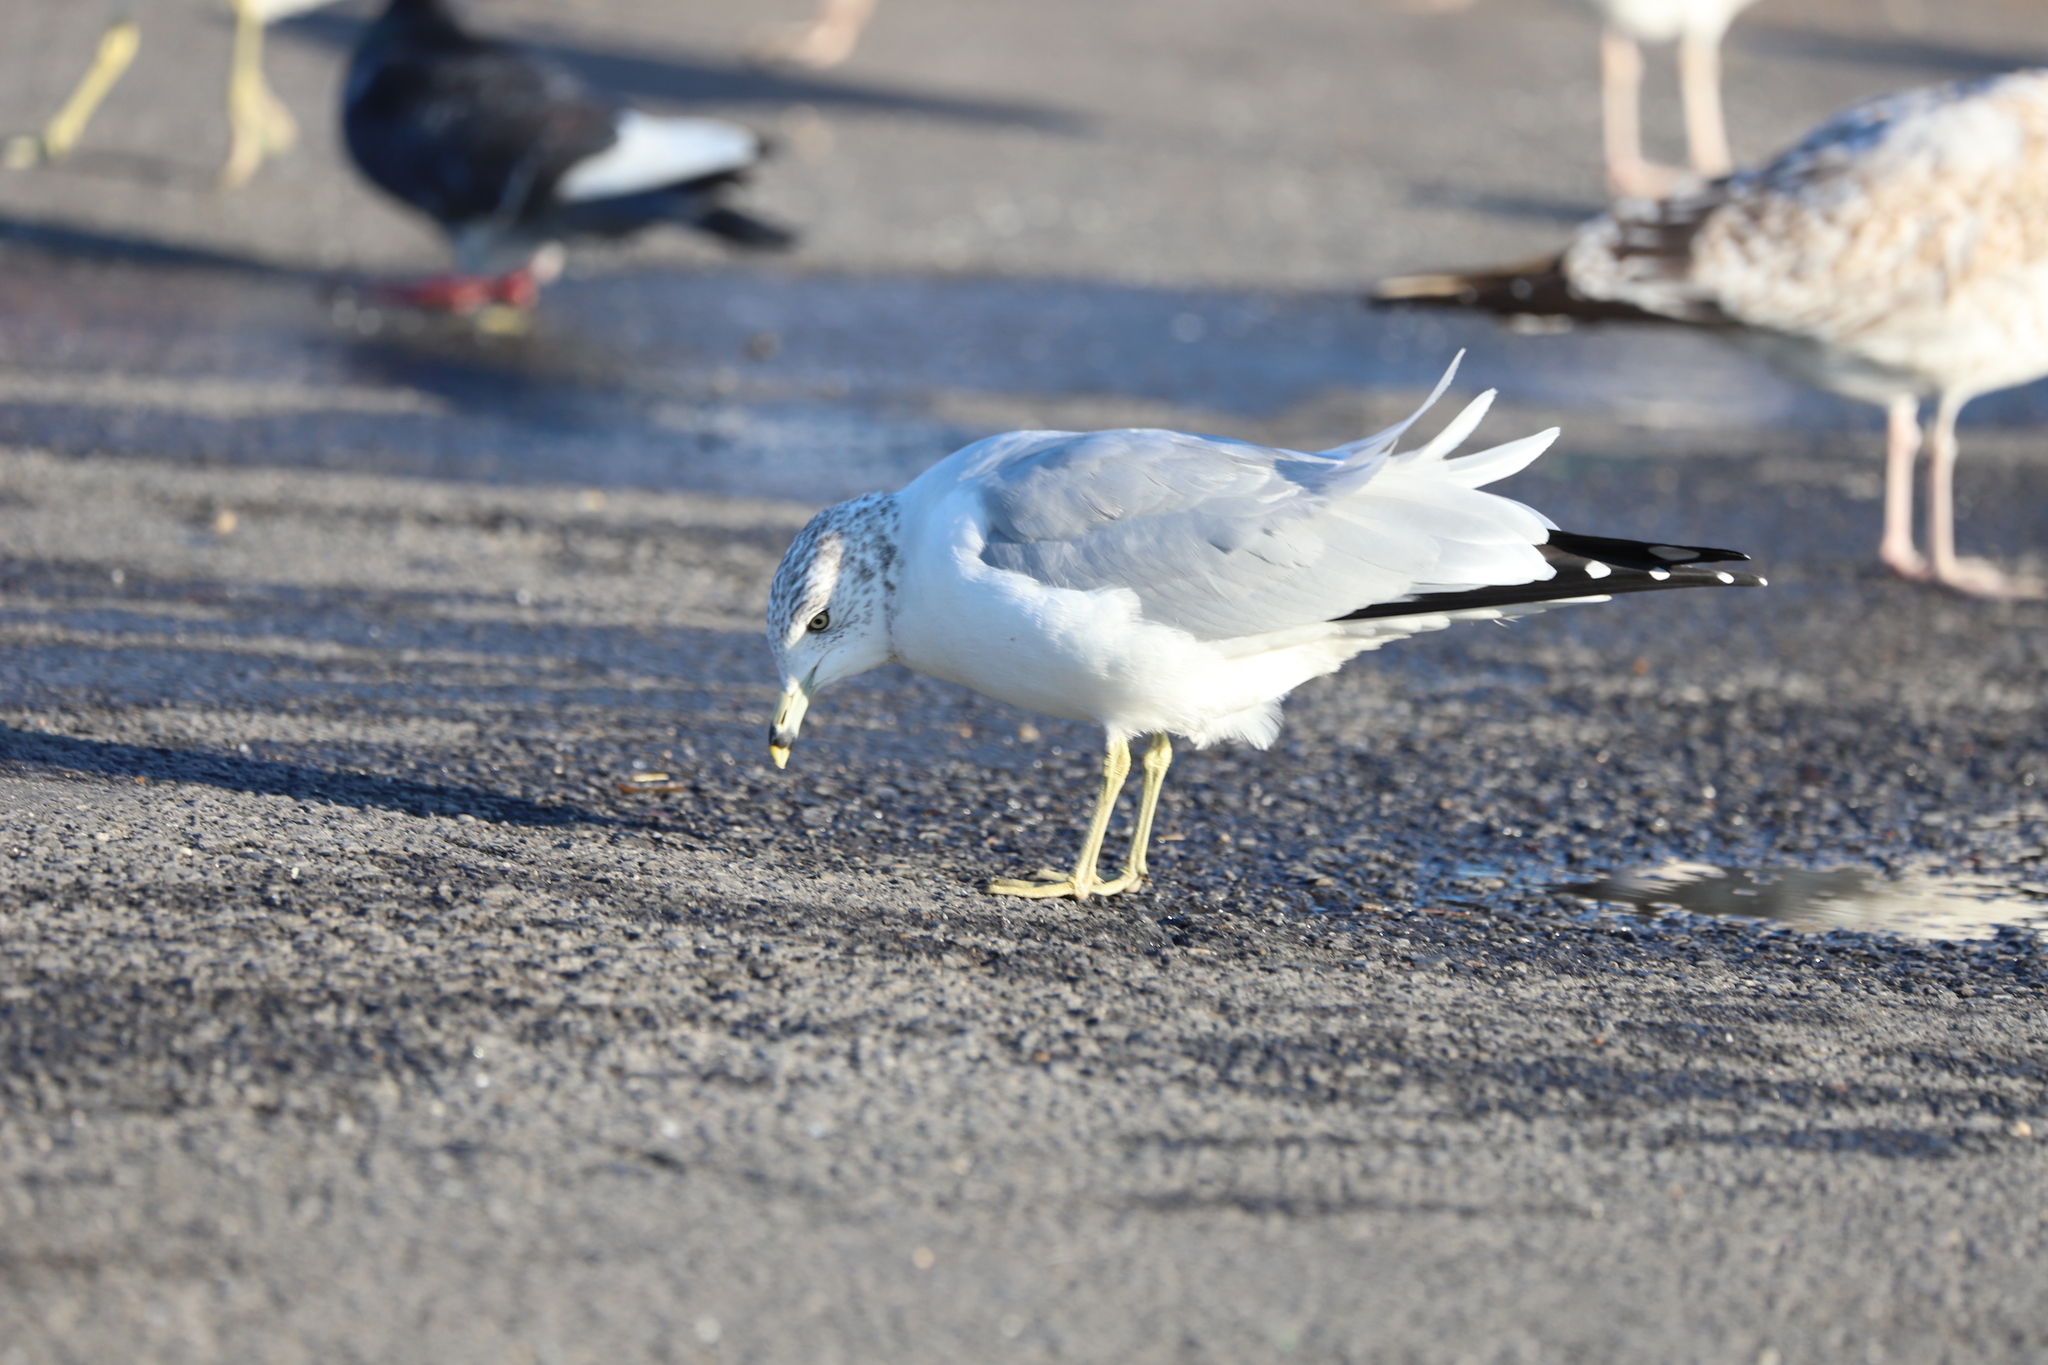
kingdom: Animalia
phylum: Chordata
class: Aves
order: Charadriiformes
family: Laridae
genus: Larus
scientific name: Larus delawarensis
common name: Ring-billed gull
